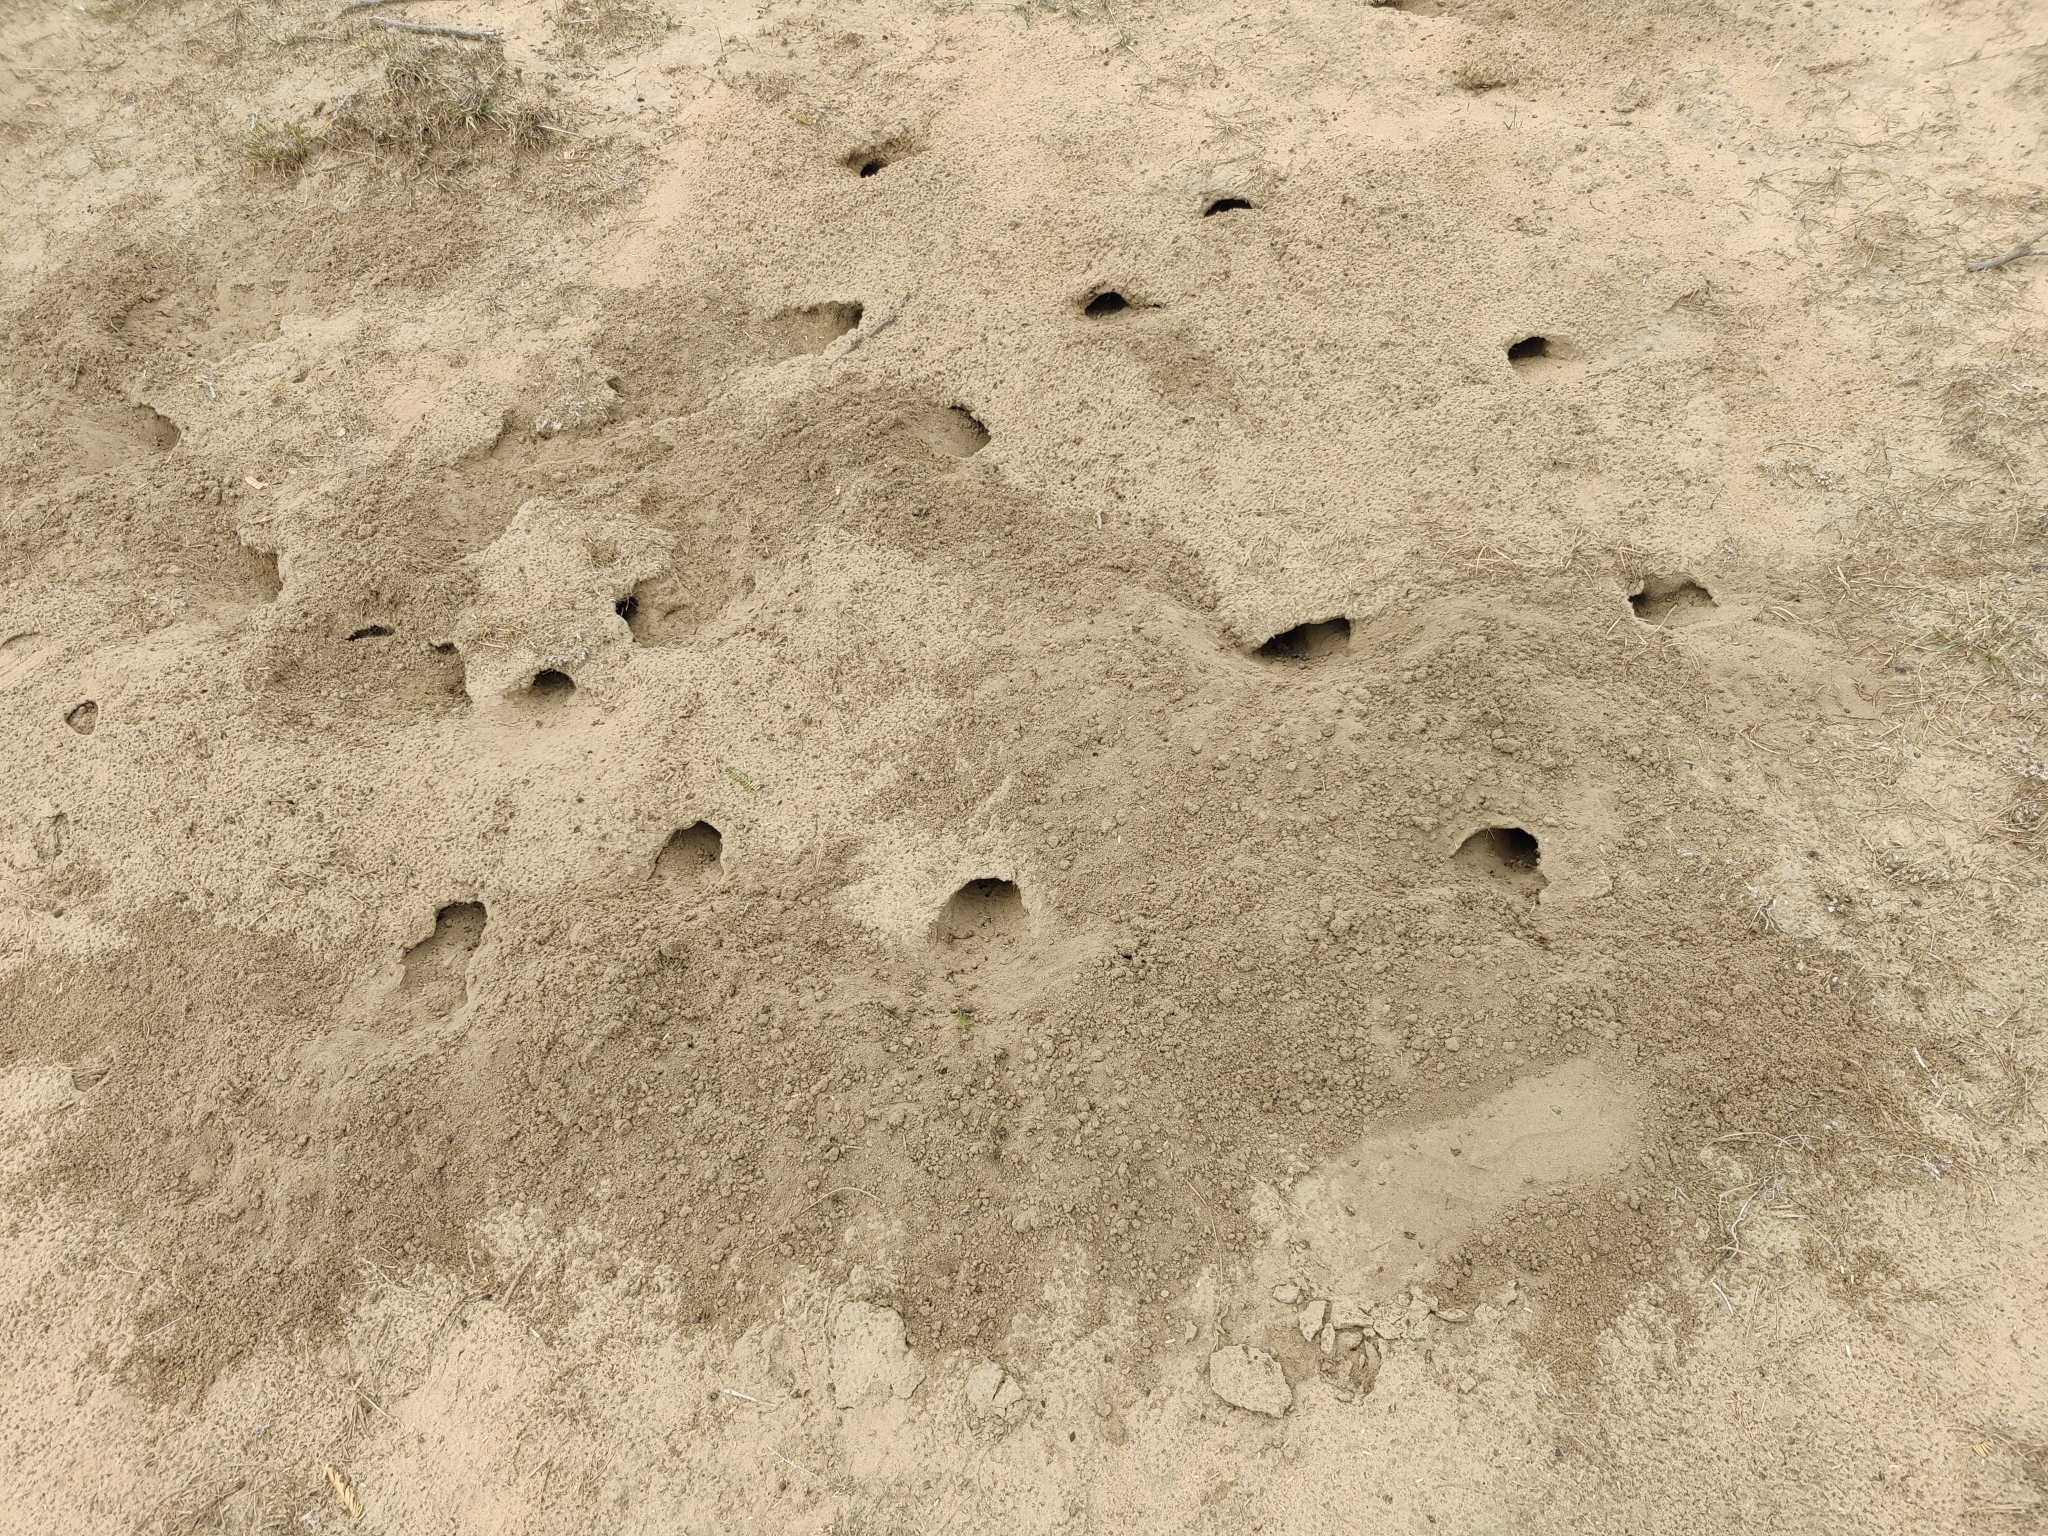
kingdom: Animalia
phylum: Chordata
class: Mammalia
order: Rodentia
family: Muridae
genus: Meriones
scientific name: Meriones hurrianae
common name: Indian desert jird
